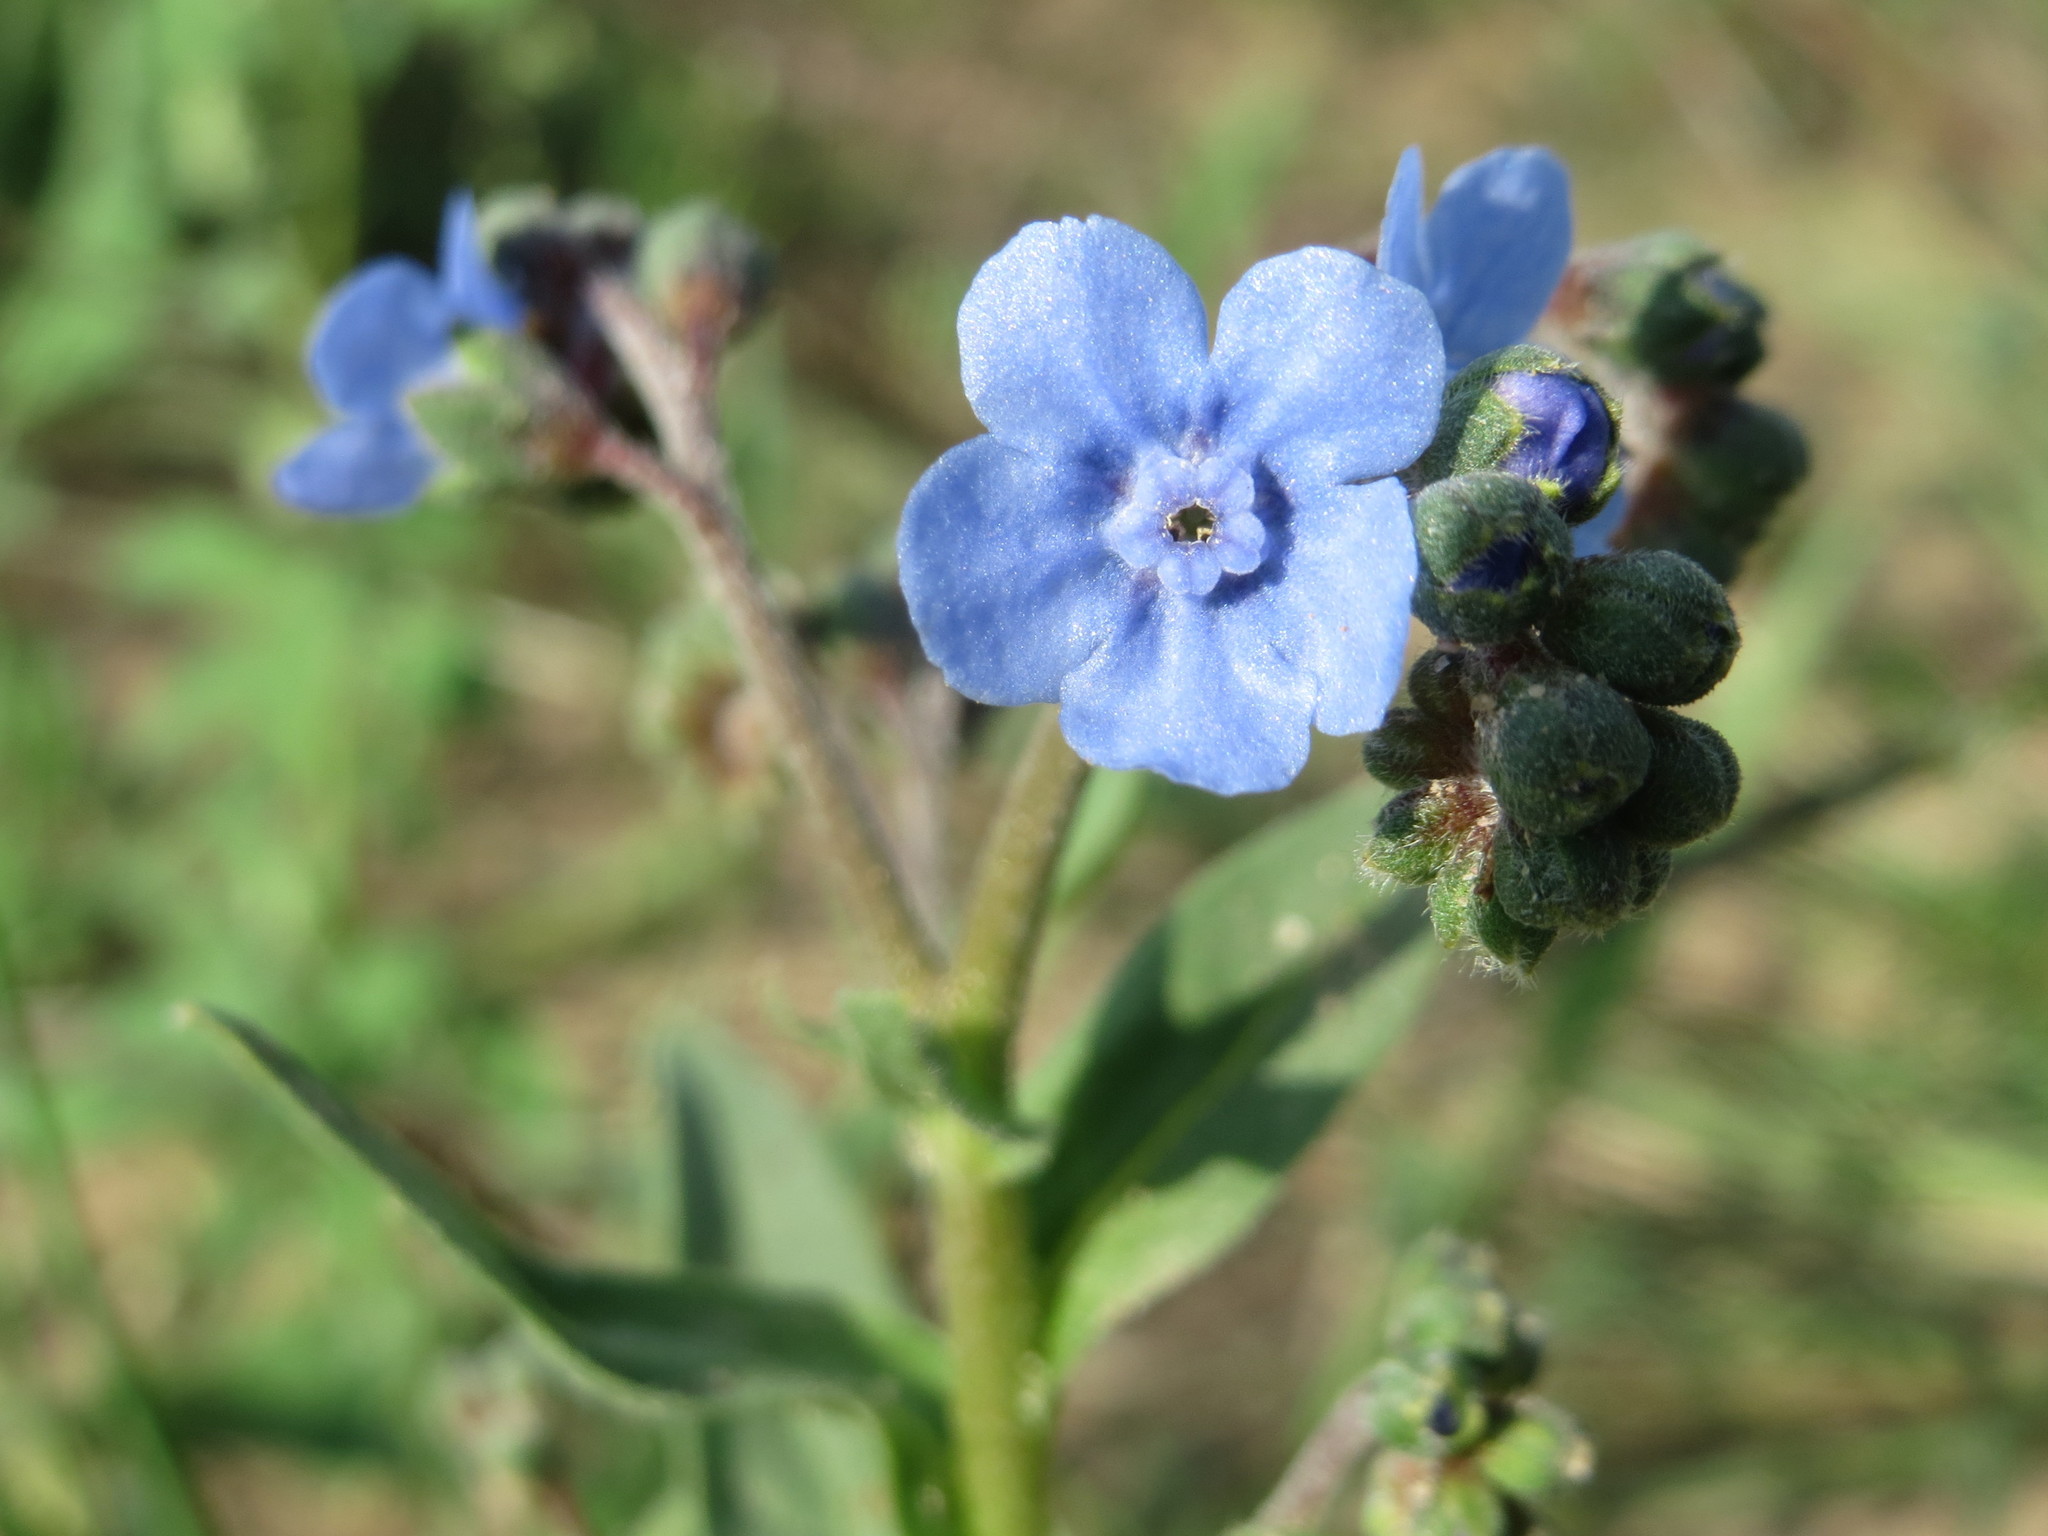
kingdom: Plantae
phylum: Tracheophyta
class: Magnoliopsida
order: Boraginales
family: Boraginaceae
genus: Cynoglossum
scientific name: Cynoglossum amabile
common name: Chinese hound's tongue
